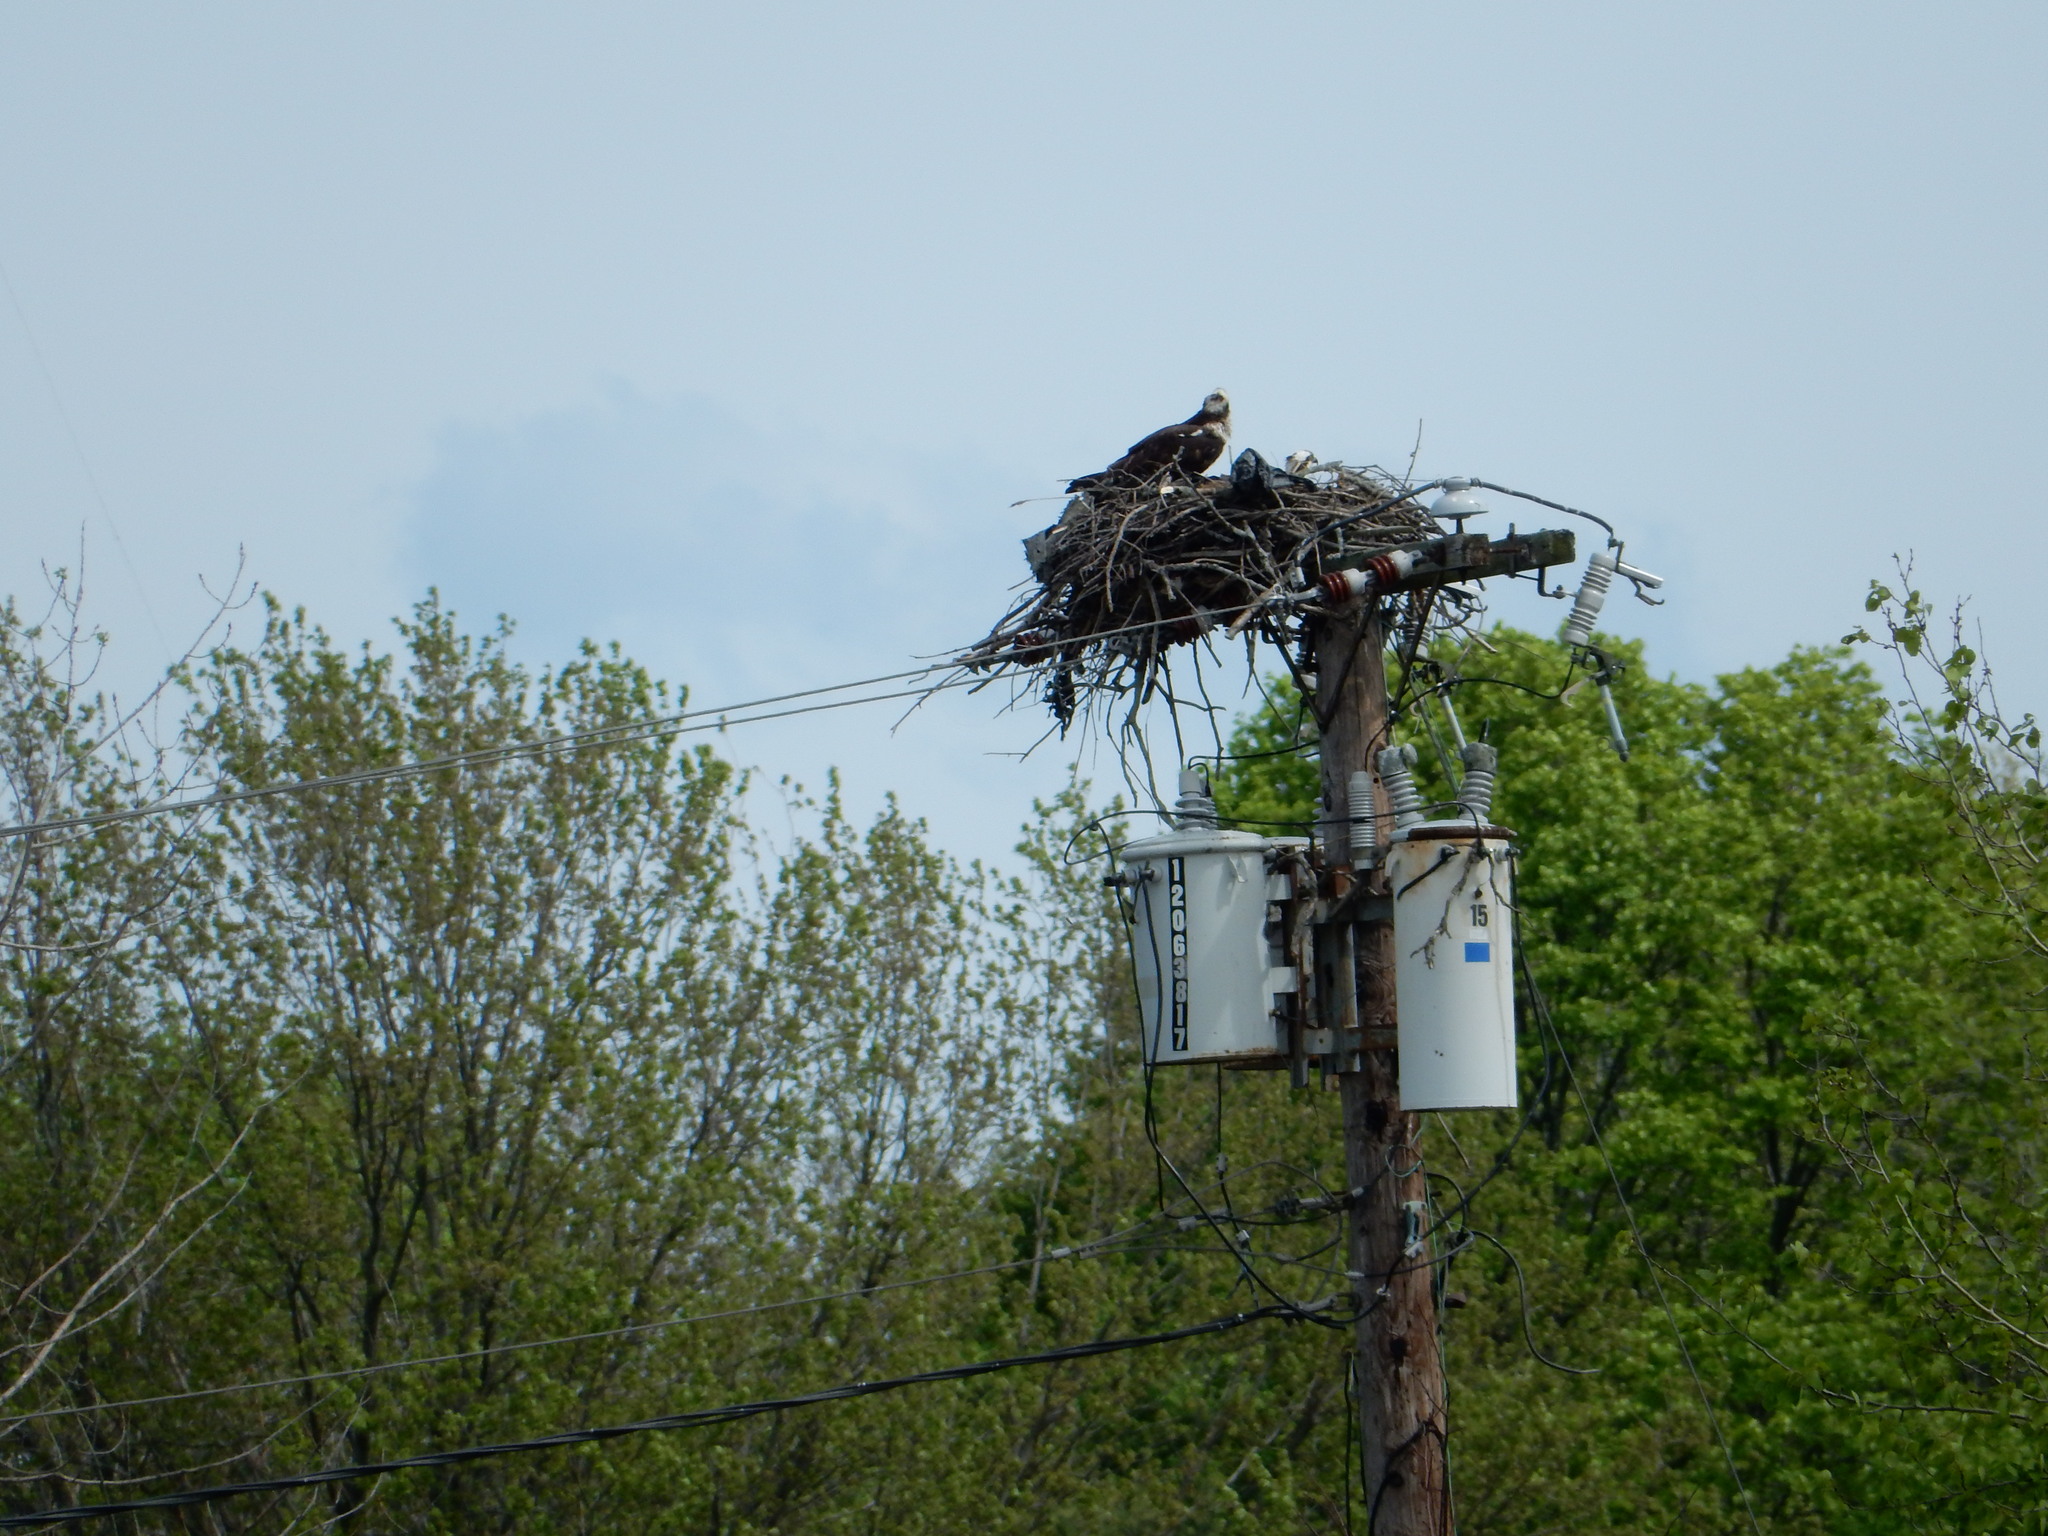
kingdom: Animalia
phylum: Chordata
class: Aves
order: Accipitriformes
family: Pandionidae
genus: Pandion
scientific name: Pandion haliaetus
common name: Osprey
